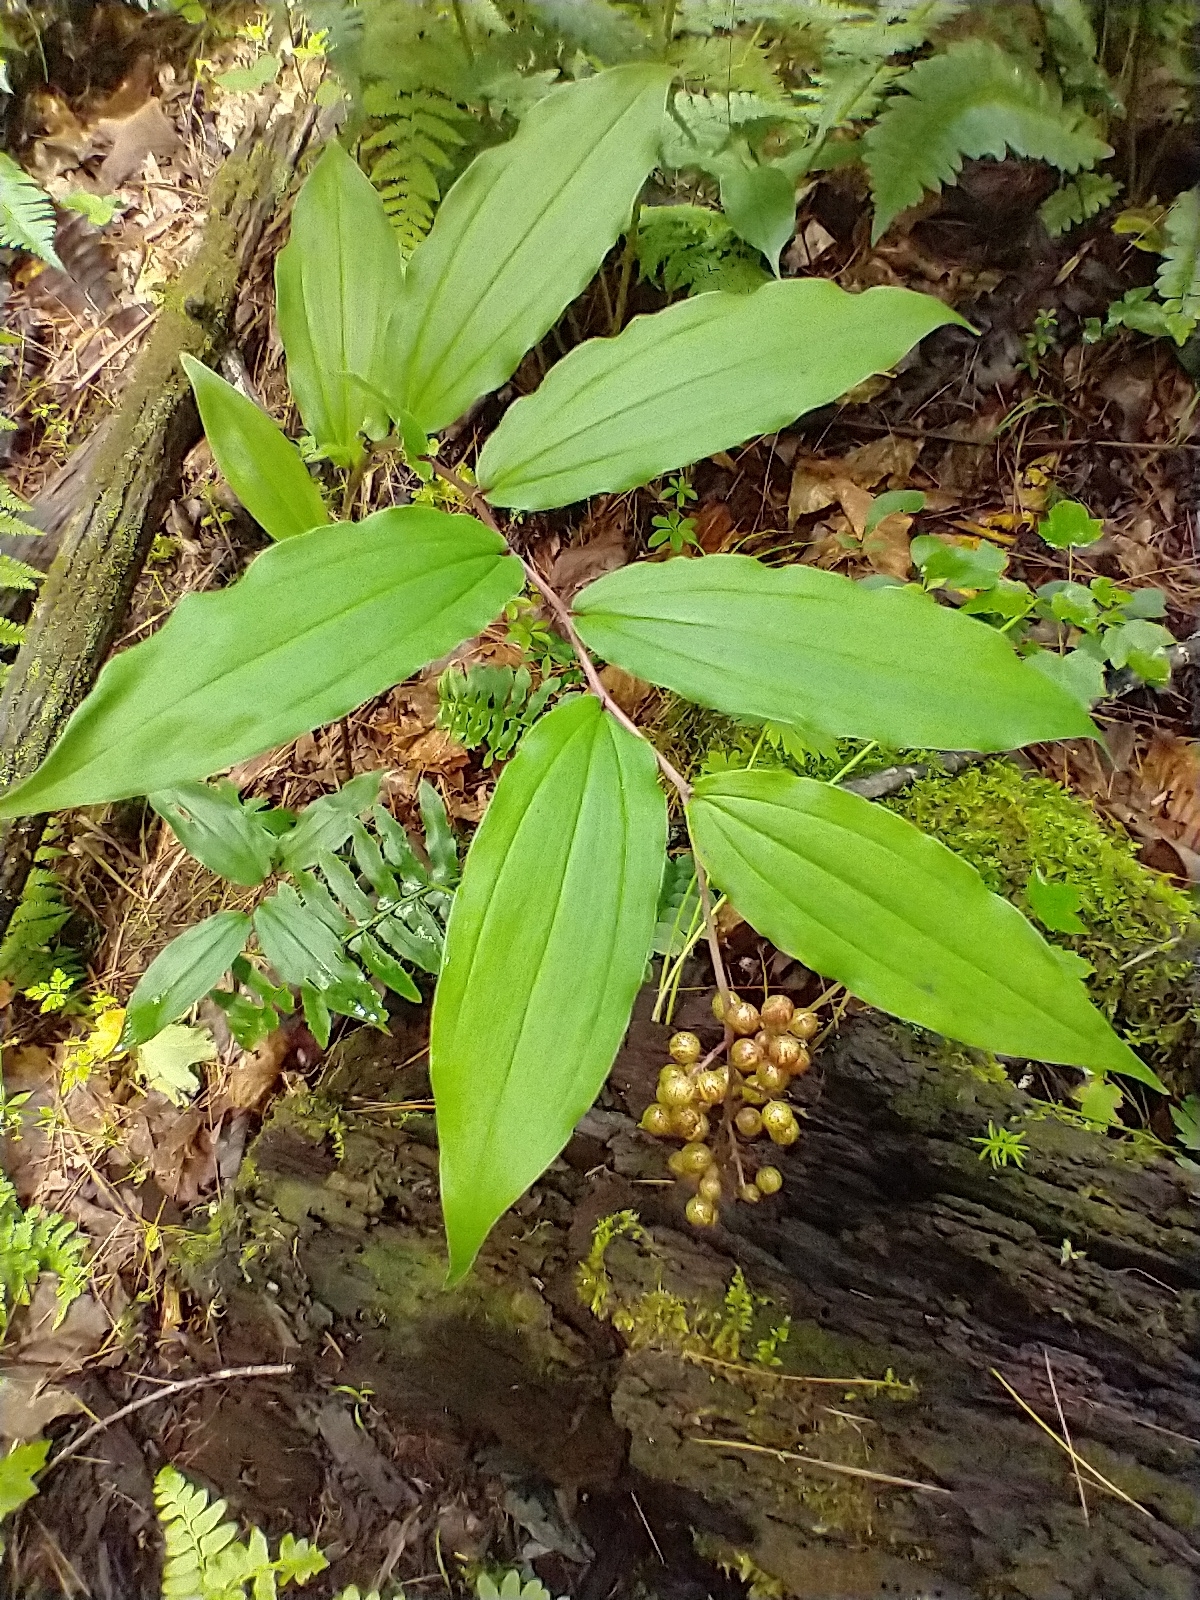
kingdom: Plantae
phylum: Tracheophyta
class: Liliopsida
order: Asparagales
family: Asparagaceae
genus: Maianthemum
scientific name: Maianthemum racemosum
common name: False spikenard
